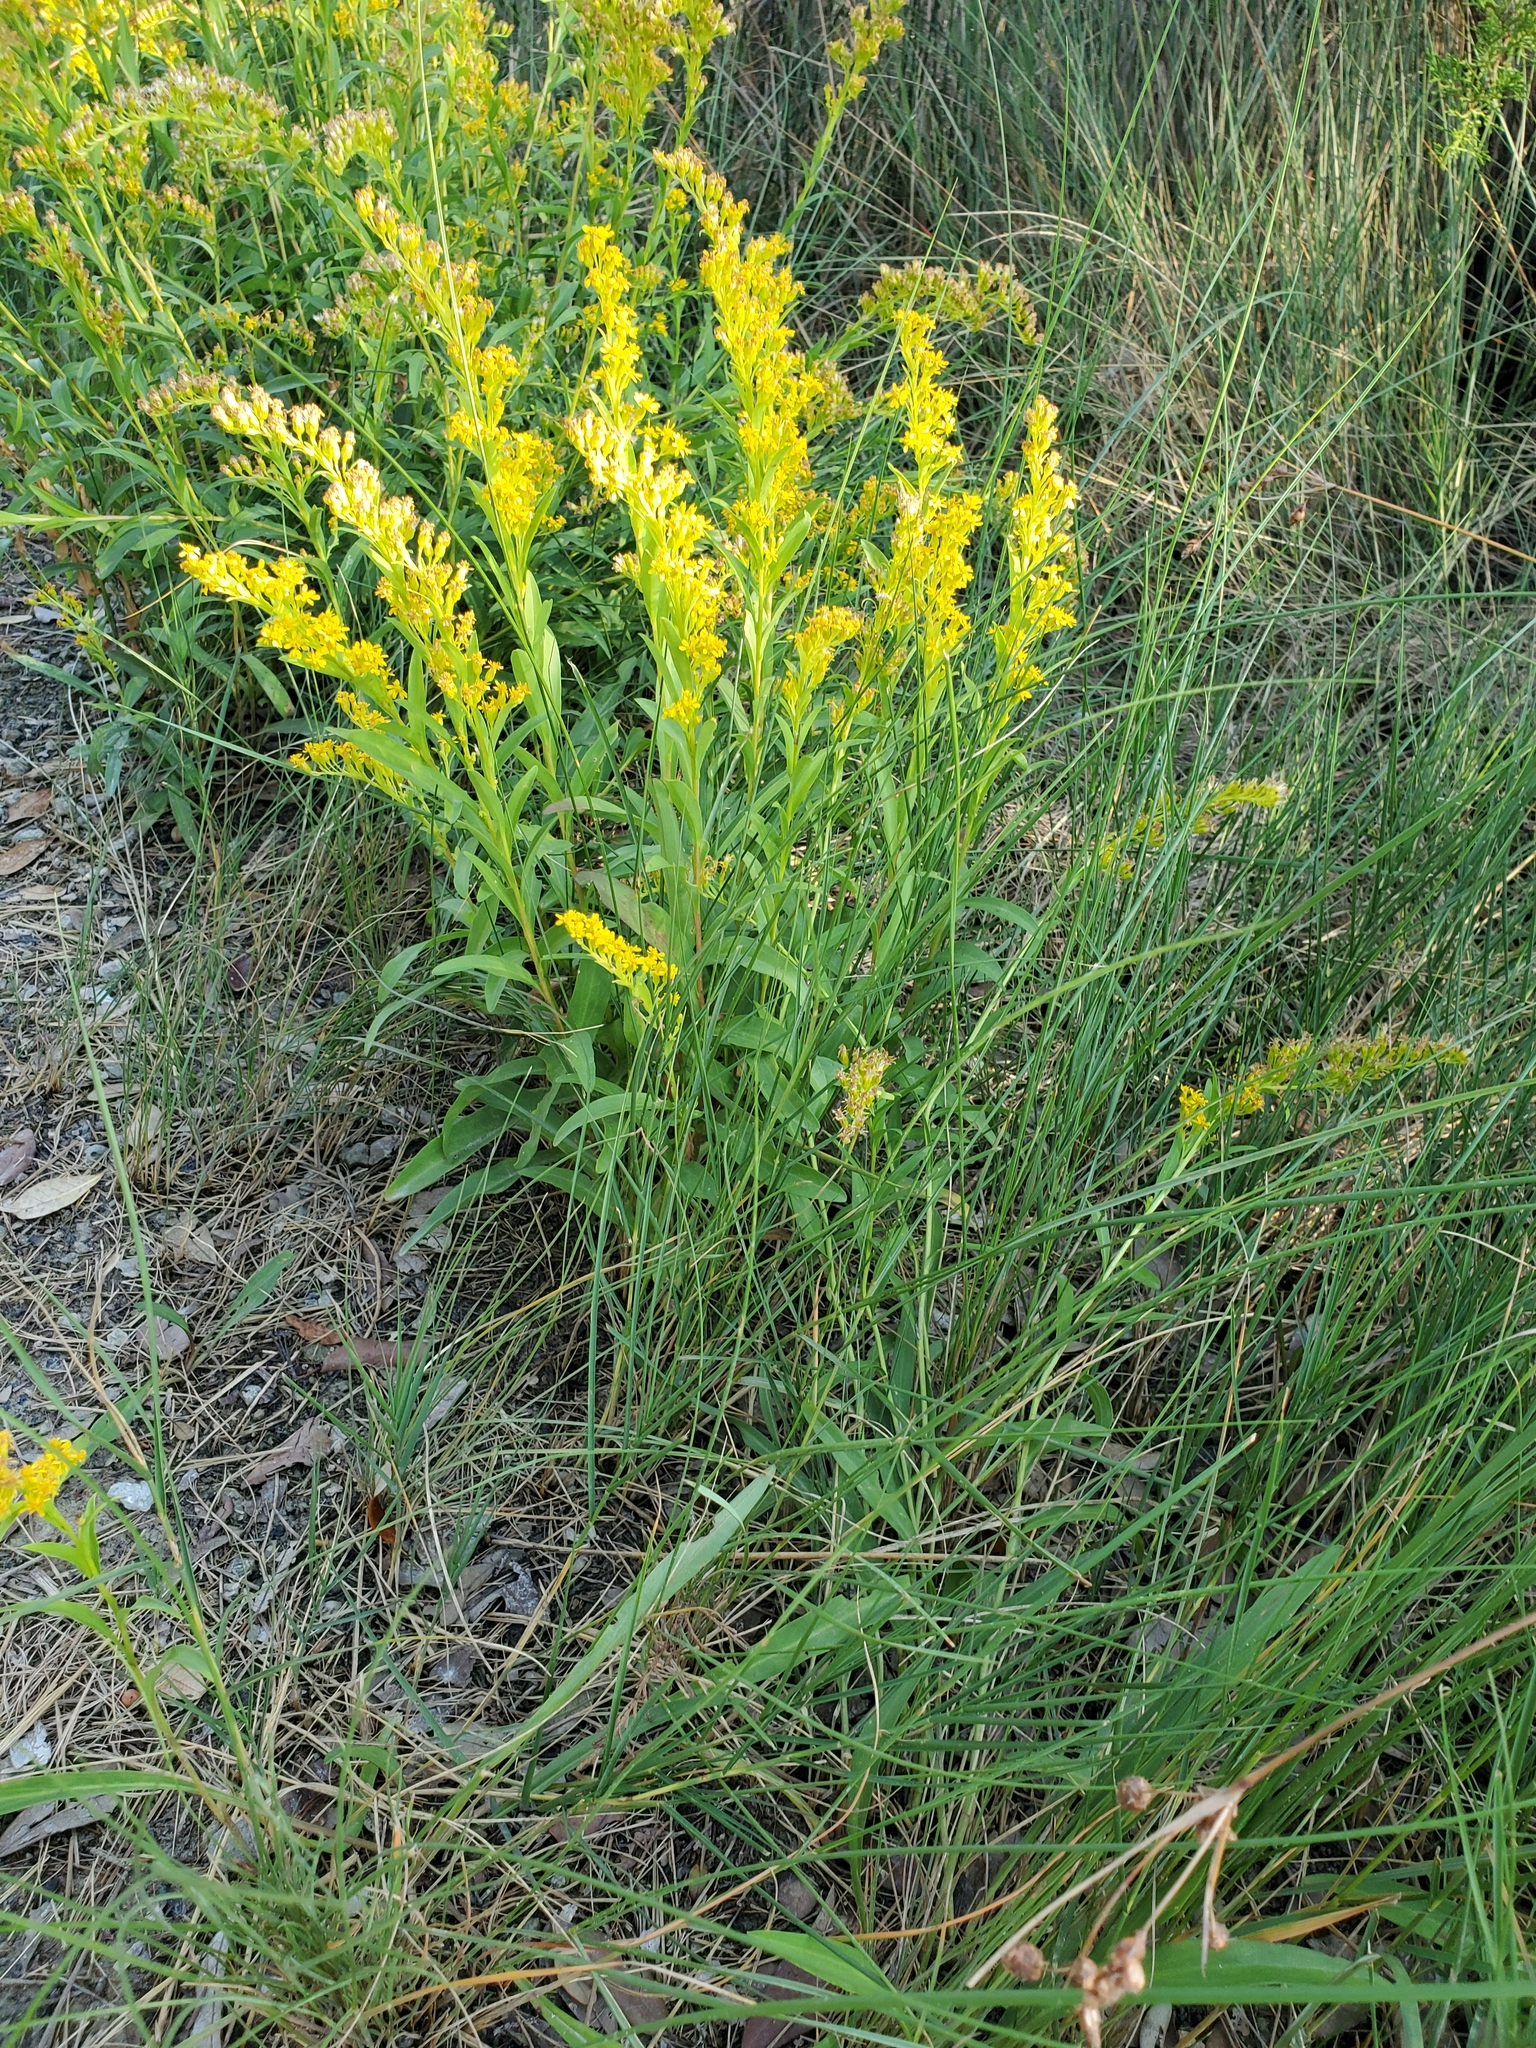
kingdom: Plantae
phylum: Tracheophyta
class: Magnoliopsida
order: Asterales
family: Asteraceae
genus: Solidago
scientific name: Solidago mexicana
